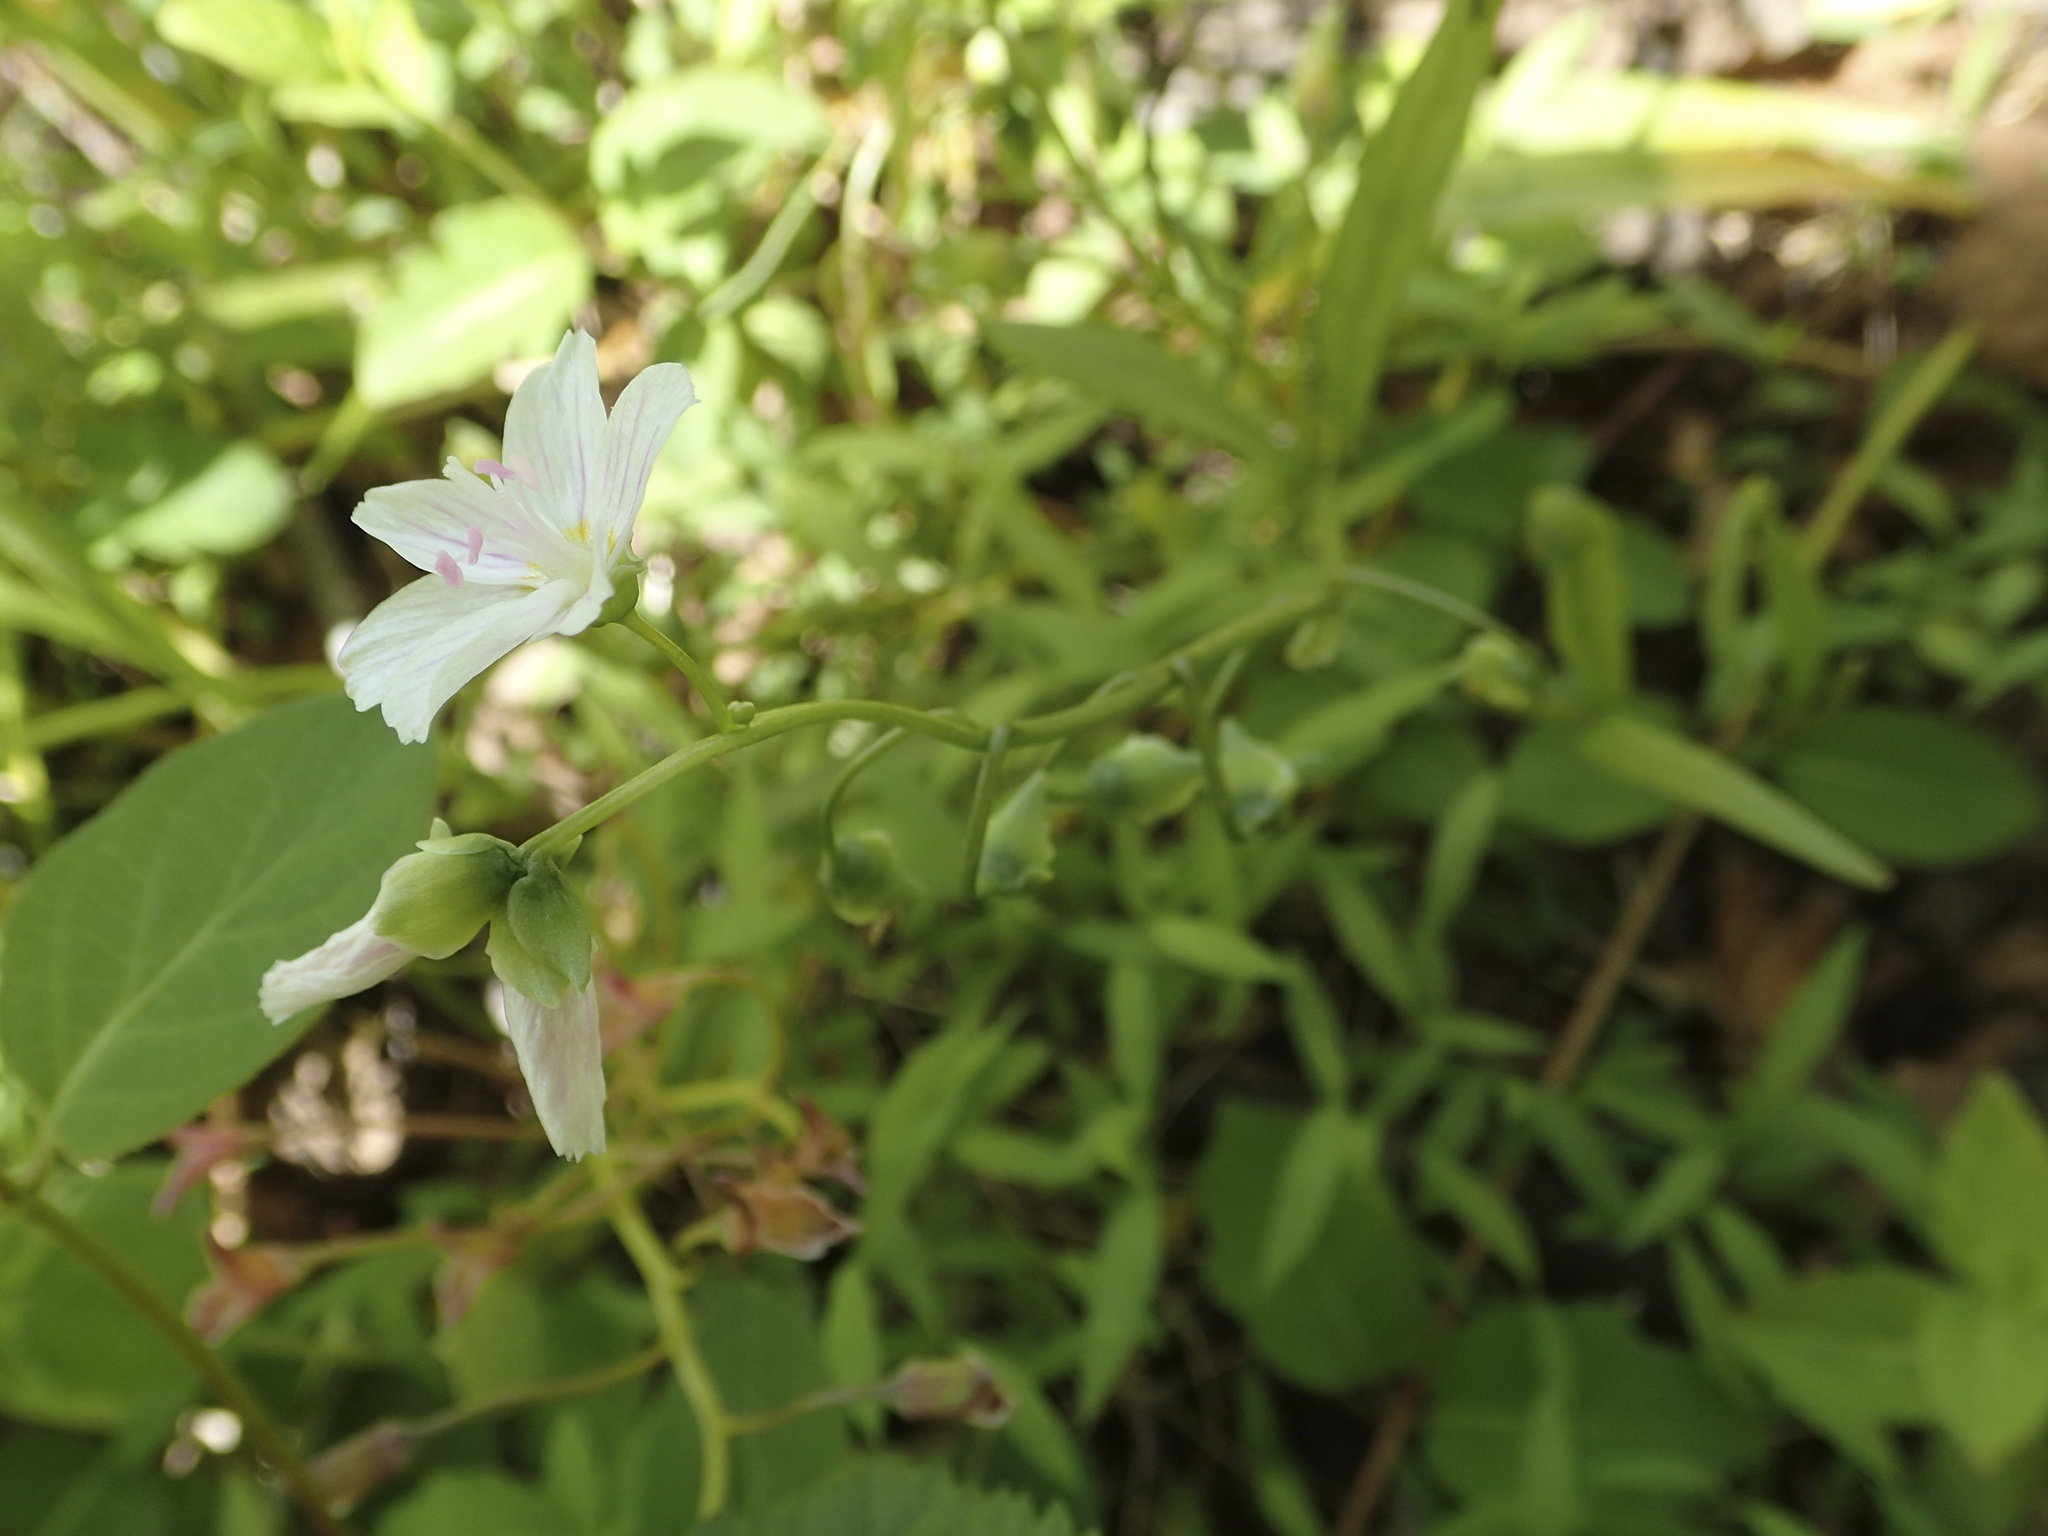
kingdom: Plantae
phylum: Tracheophyta
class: Magnoliopsida
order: Caryophyllales
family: Montiaceae
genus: Claytonia
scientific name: Claytonia virginica
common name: Virginia springbeauty
